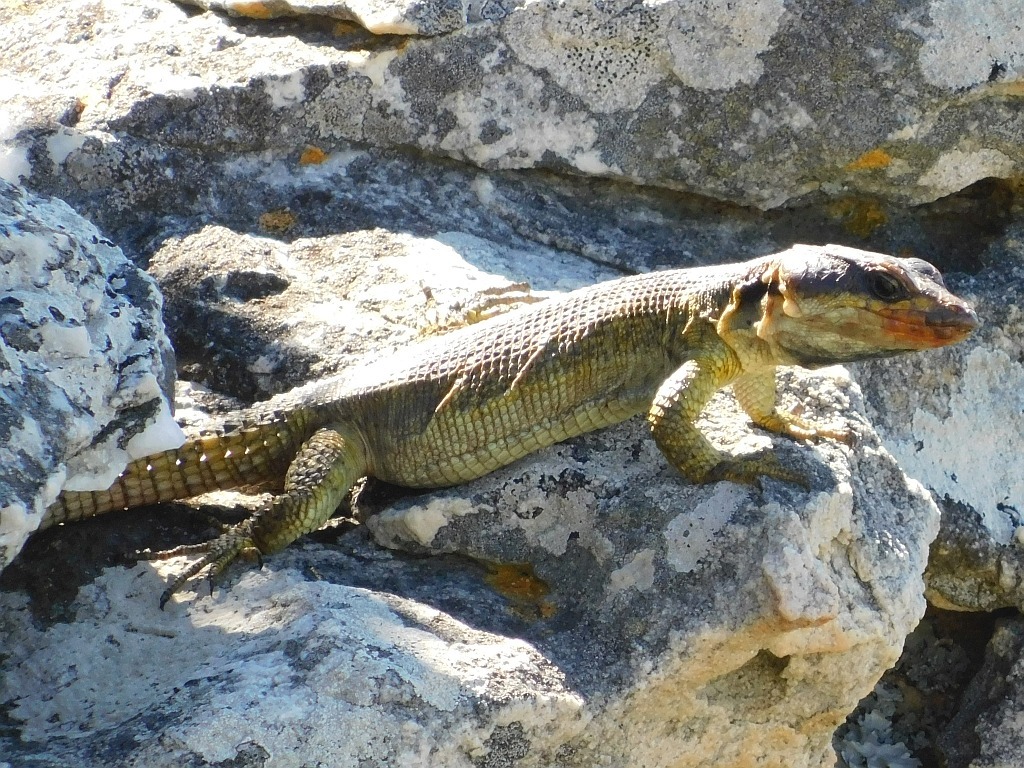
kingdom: Animalia
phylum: Chordata
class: Squamata
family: Cordylidae
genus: Pseudocordylus
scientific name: Pseudocordylus microlepidotus
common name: Cape crag lizard
